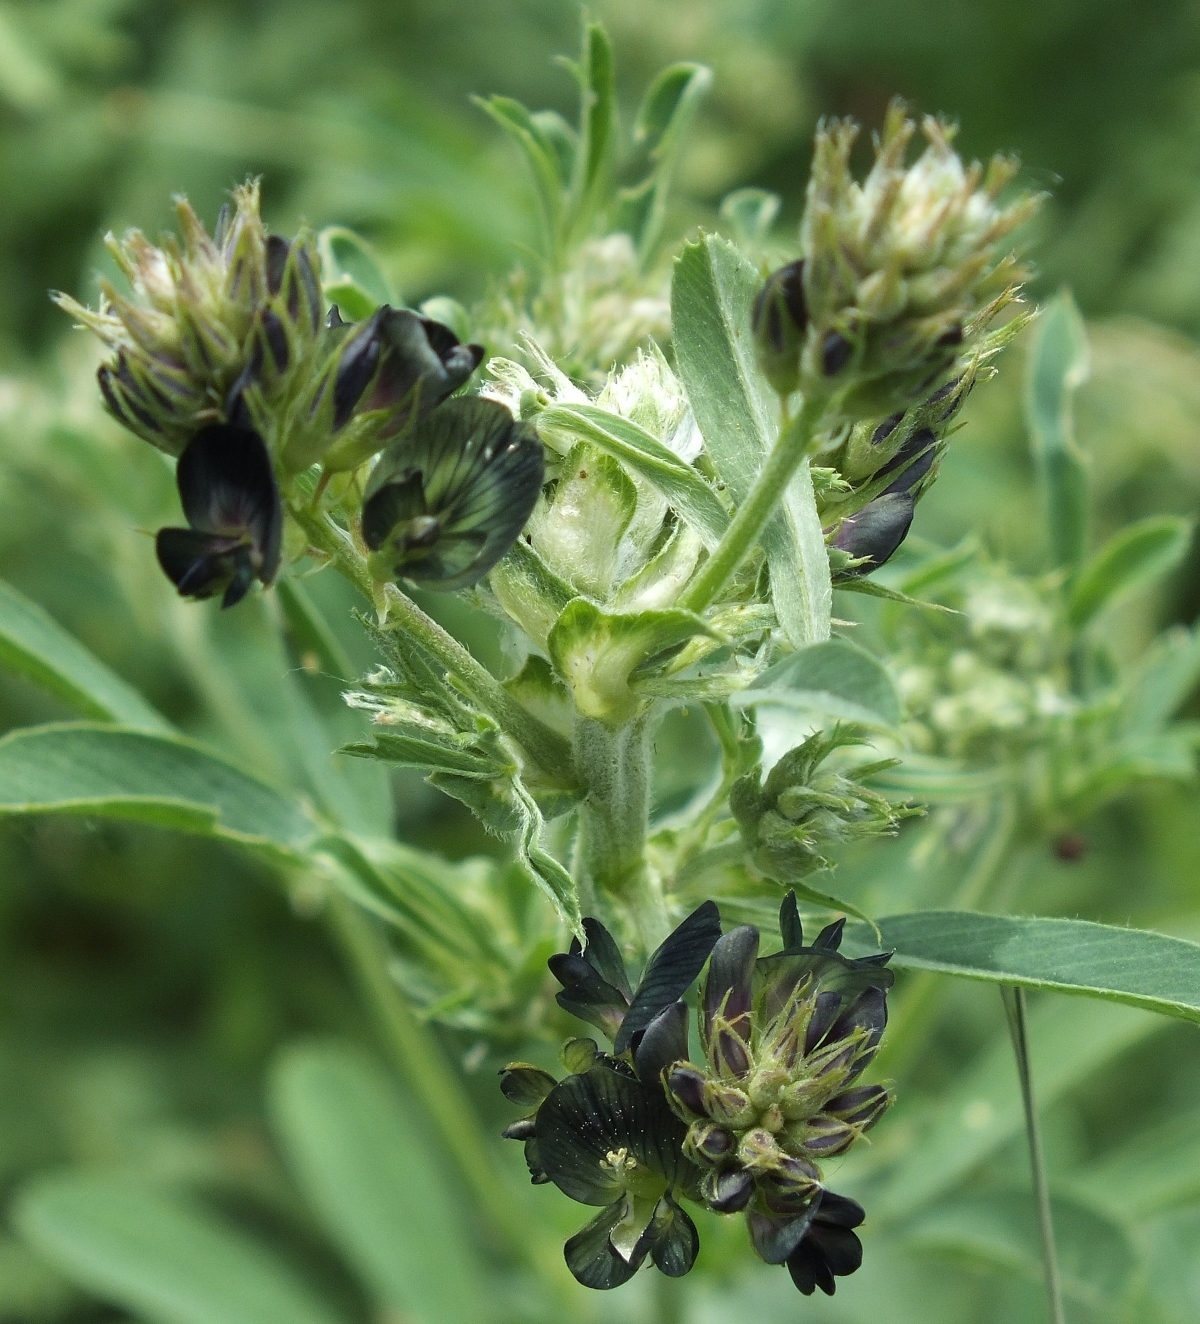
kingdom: Plantae
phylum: Tracheophyta
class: Magnoliopsida
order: Fabales
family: Fabaceae
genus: Medicago
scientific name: Medicago sativa
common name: Alfalfa
